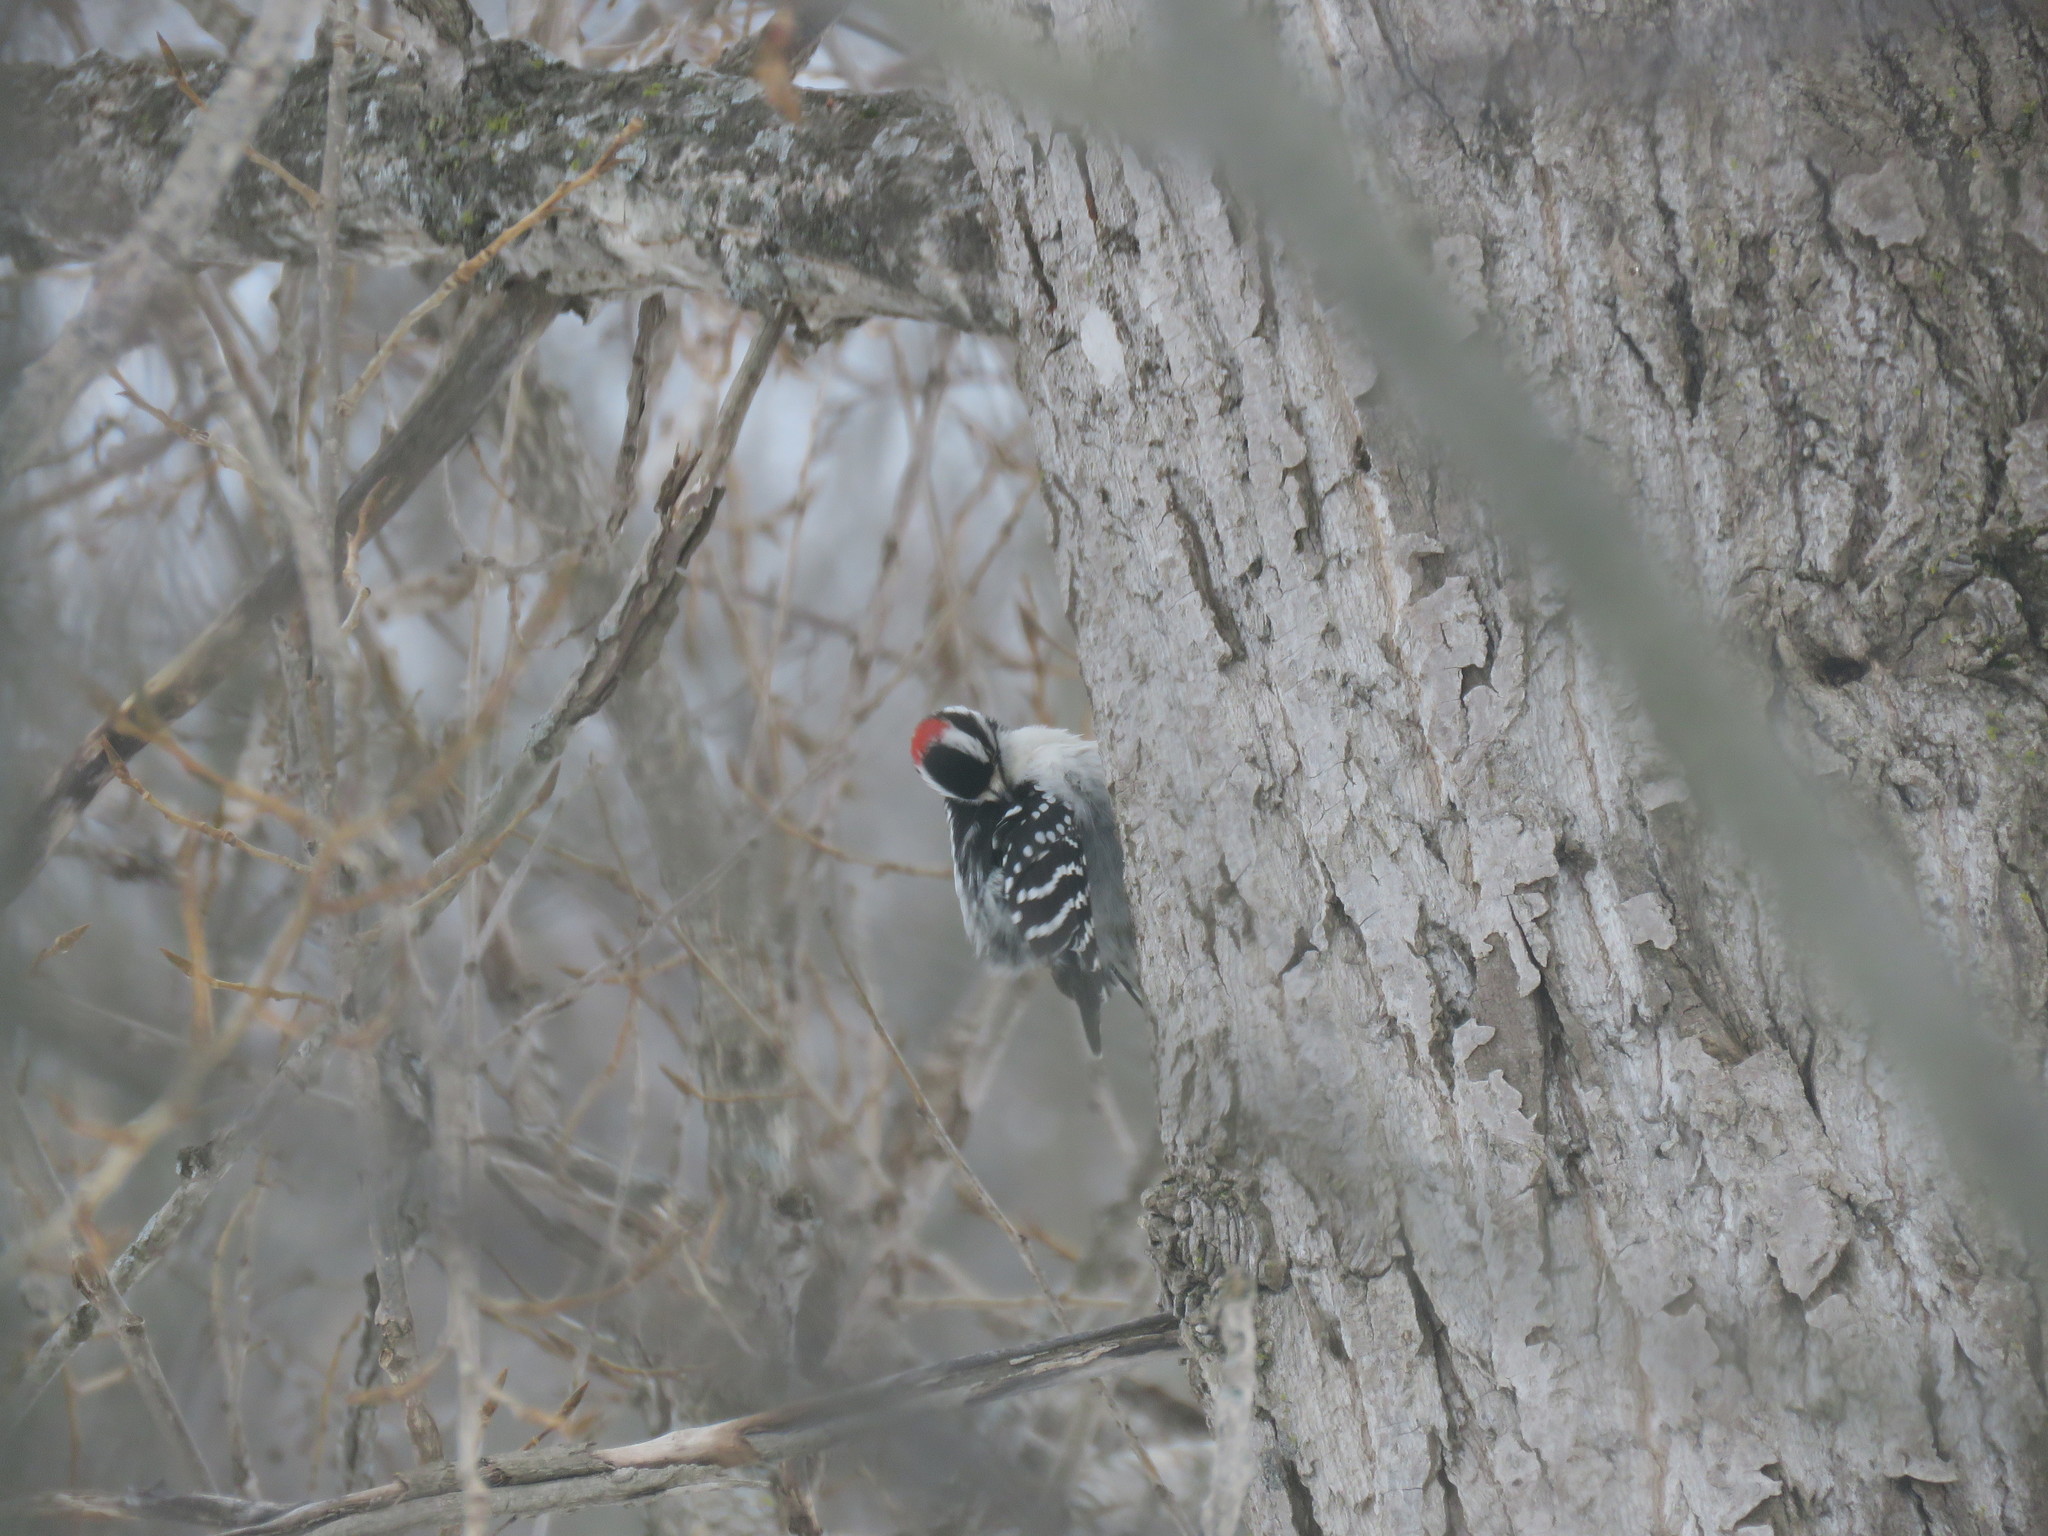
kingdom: Animalia
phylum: Chordata
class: Aves
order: Piciformes
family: Picidae
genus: Dryobates
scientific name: Dryobates pubescens
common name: Downy woodpecker
